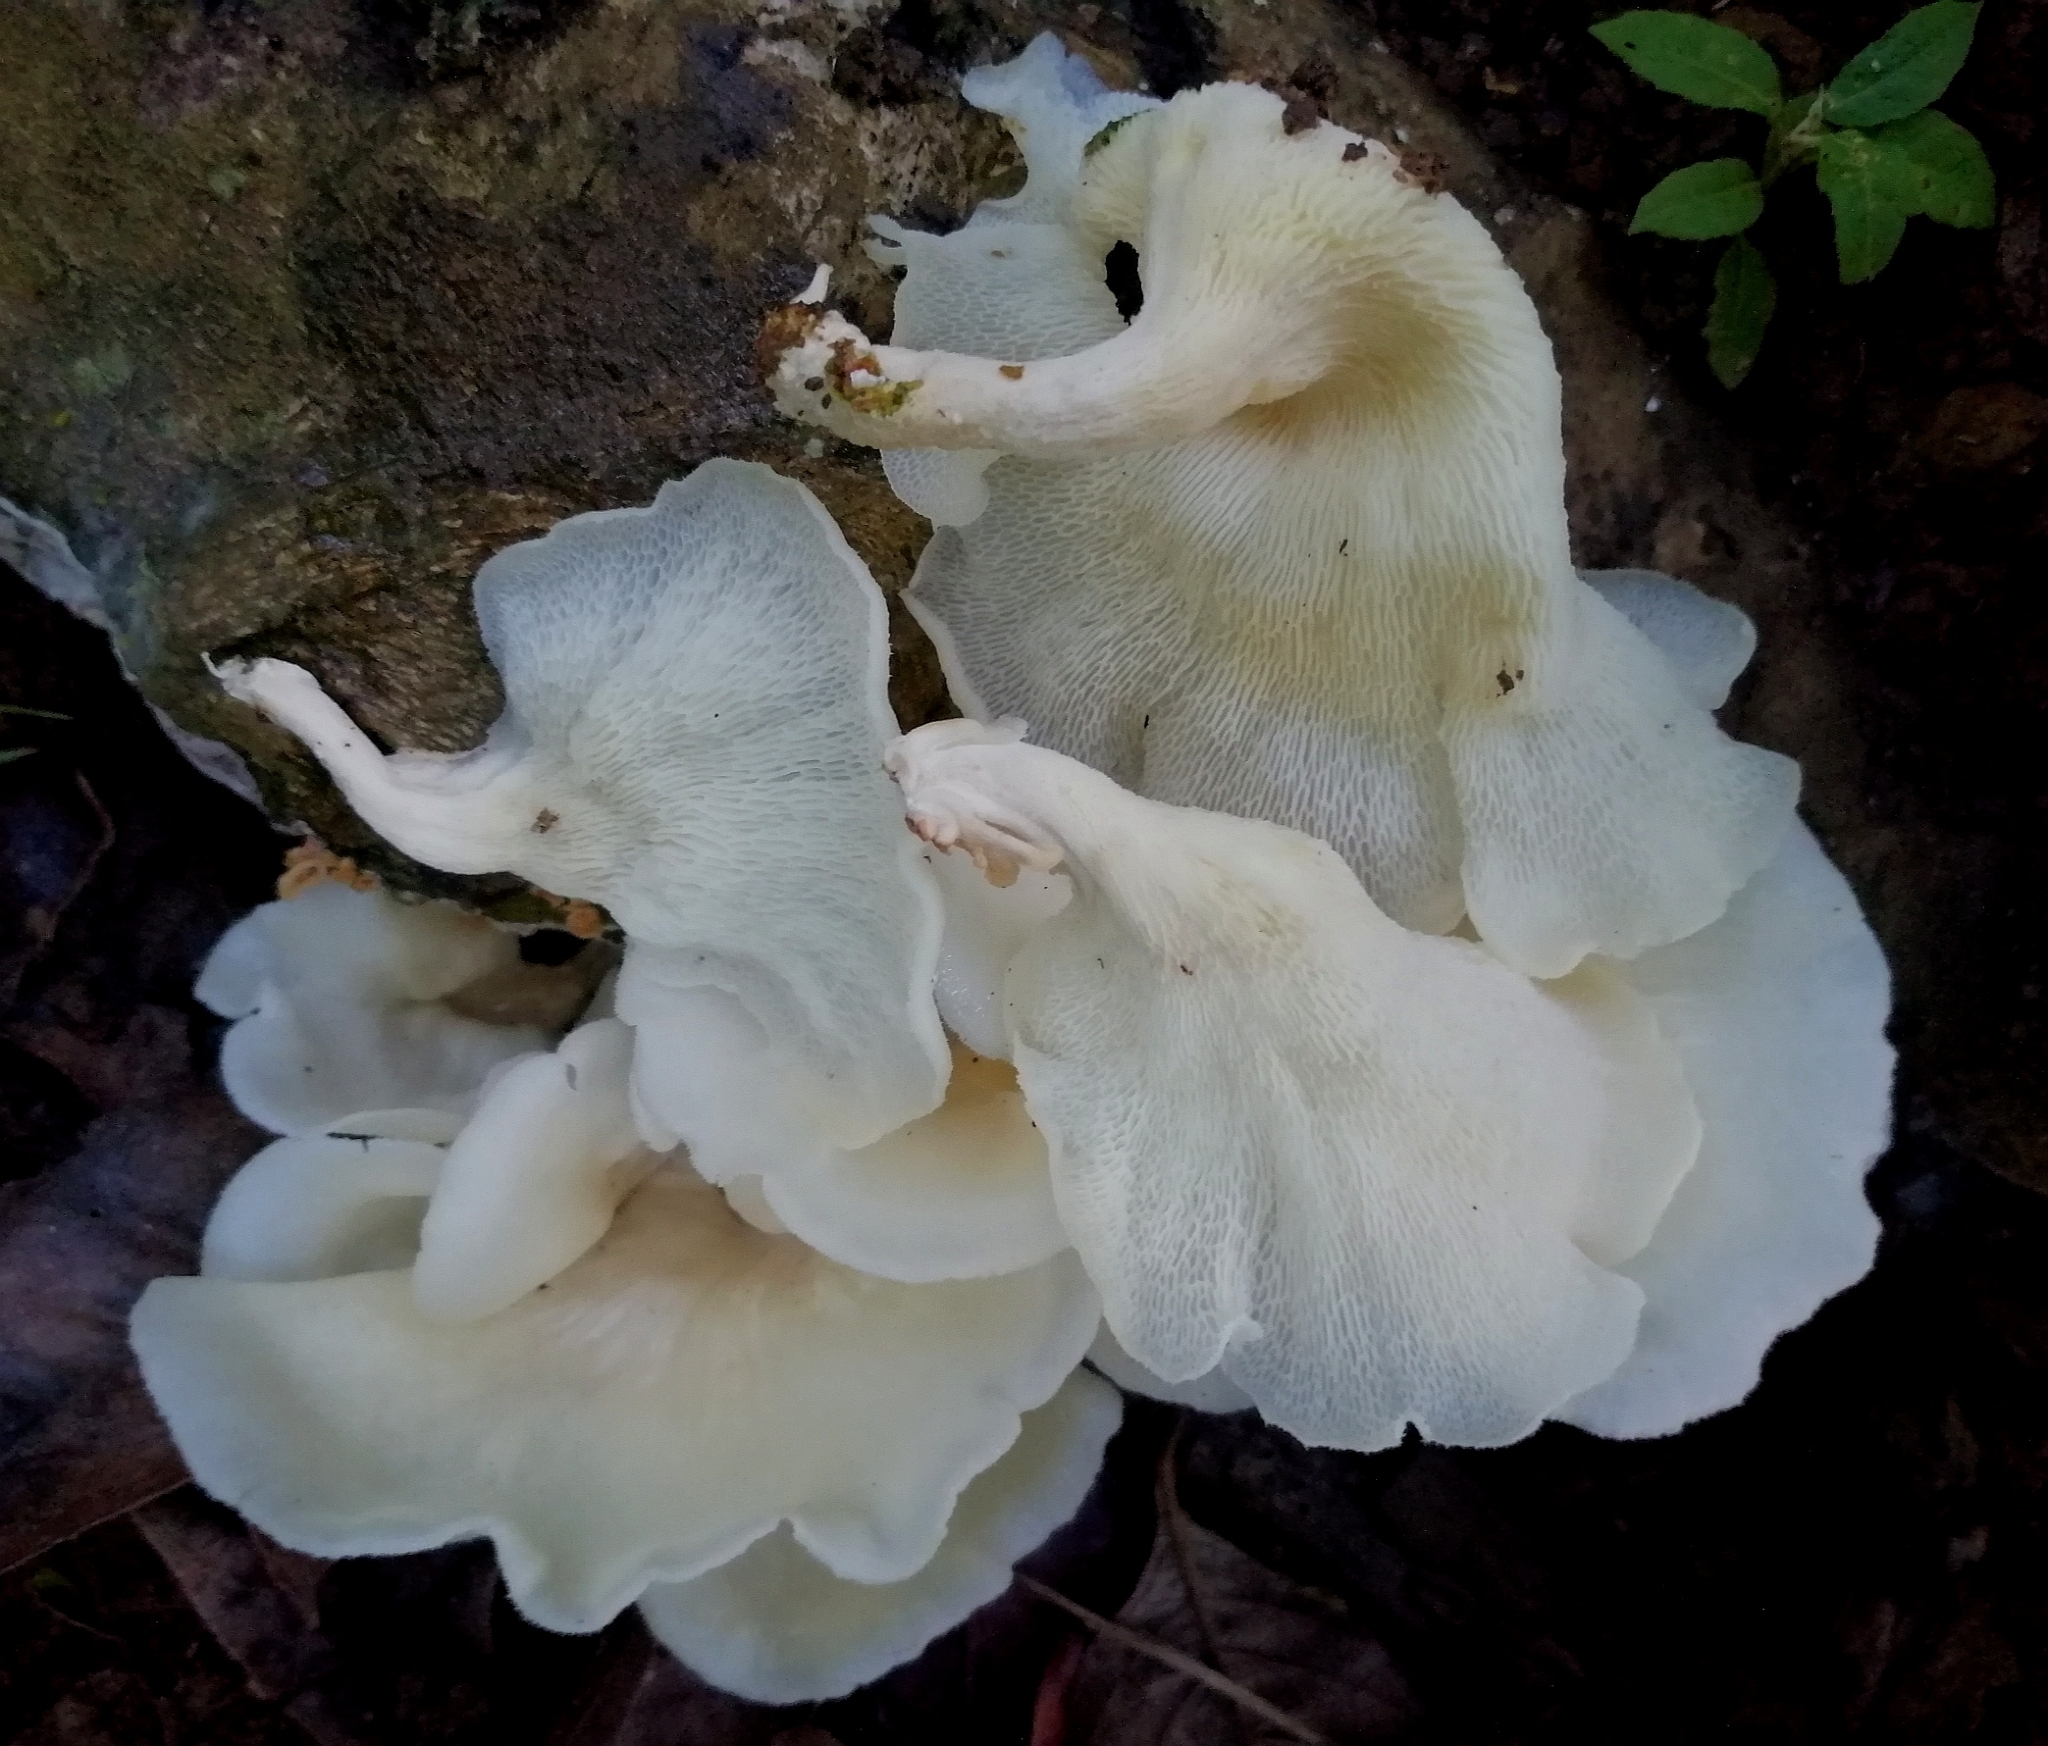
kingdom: Fungi
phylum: Basidiomycota
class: Agaricomycetes
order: Polyporales
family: Polyporaceae
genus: Favolus
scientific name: Favolus tenuiculus
